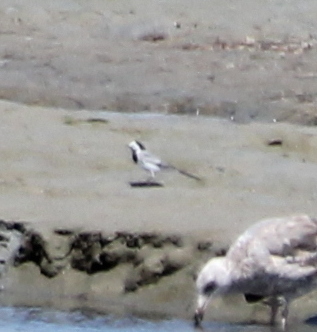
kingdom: Animalia
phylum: Chordata
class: Aves
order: Passeriformes
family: Motacillidae
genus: Motacilla
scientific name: Motacilla alba
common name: White wagtail
